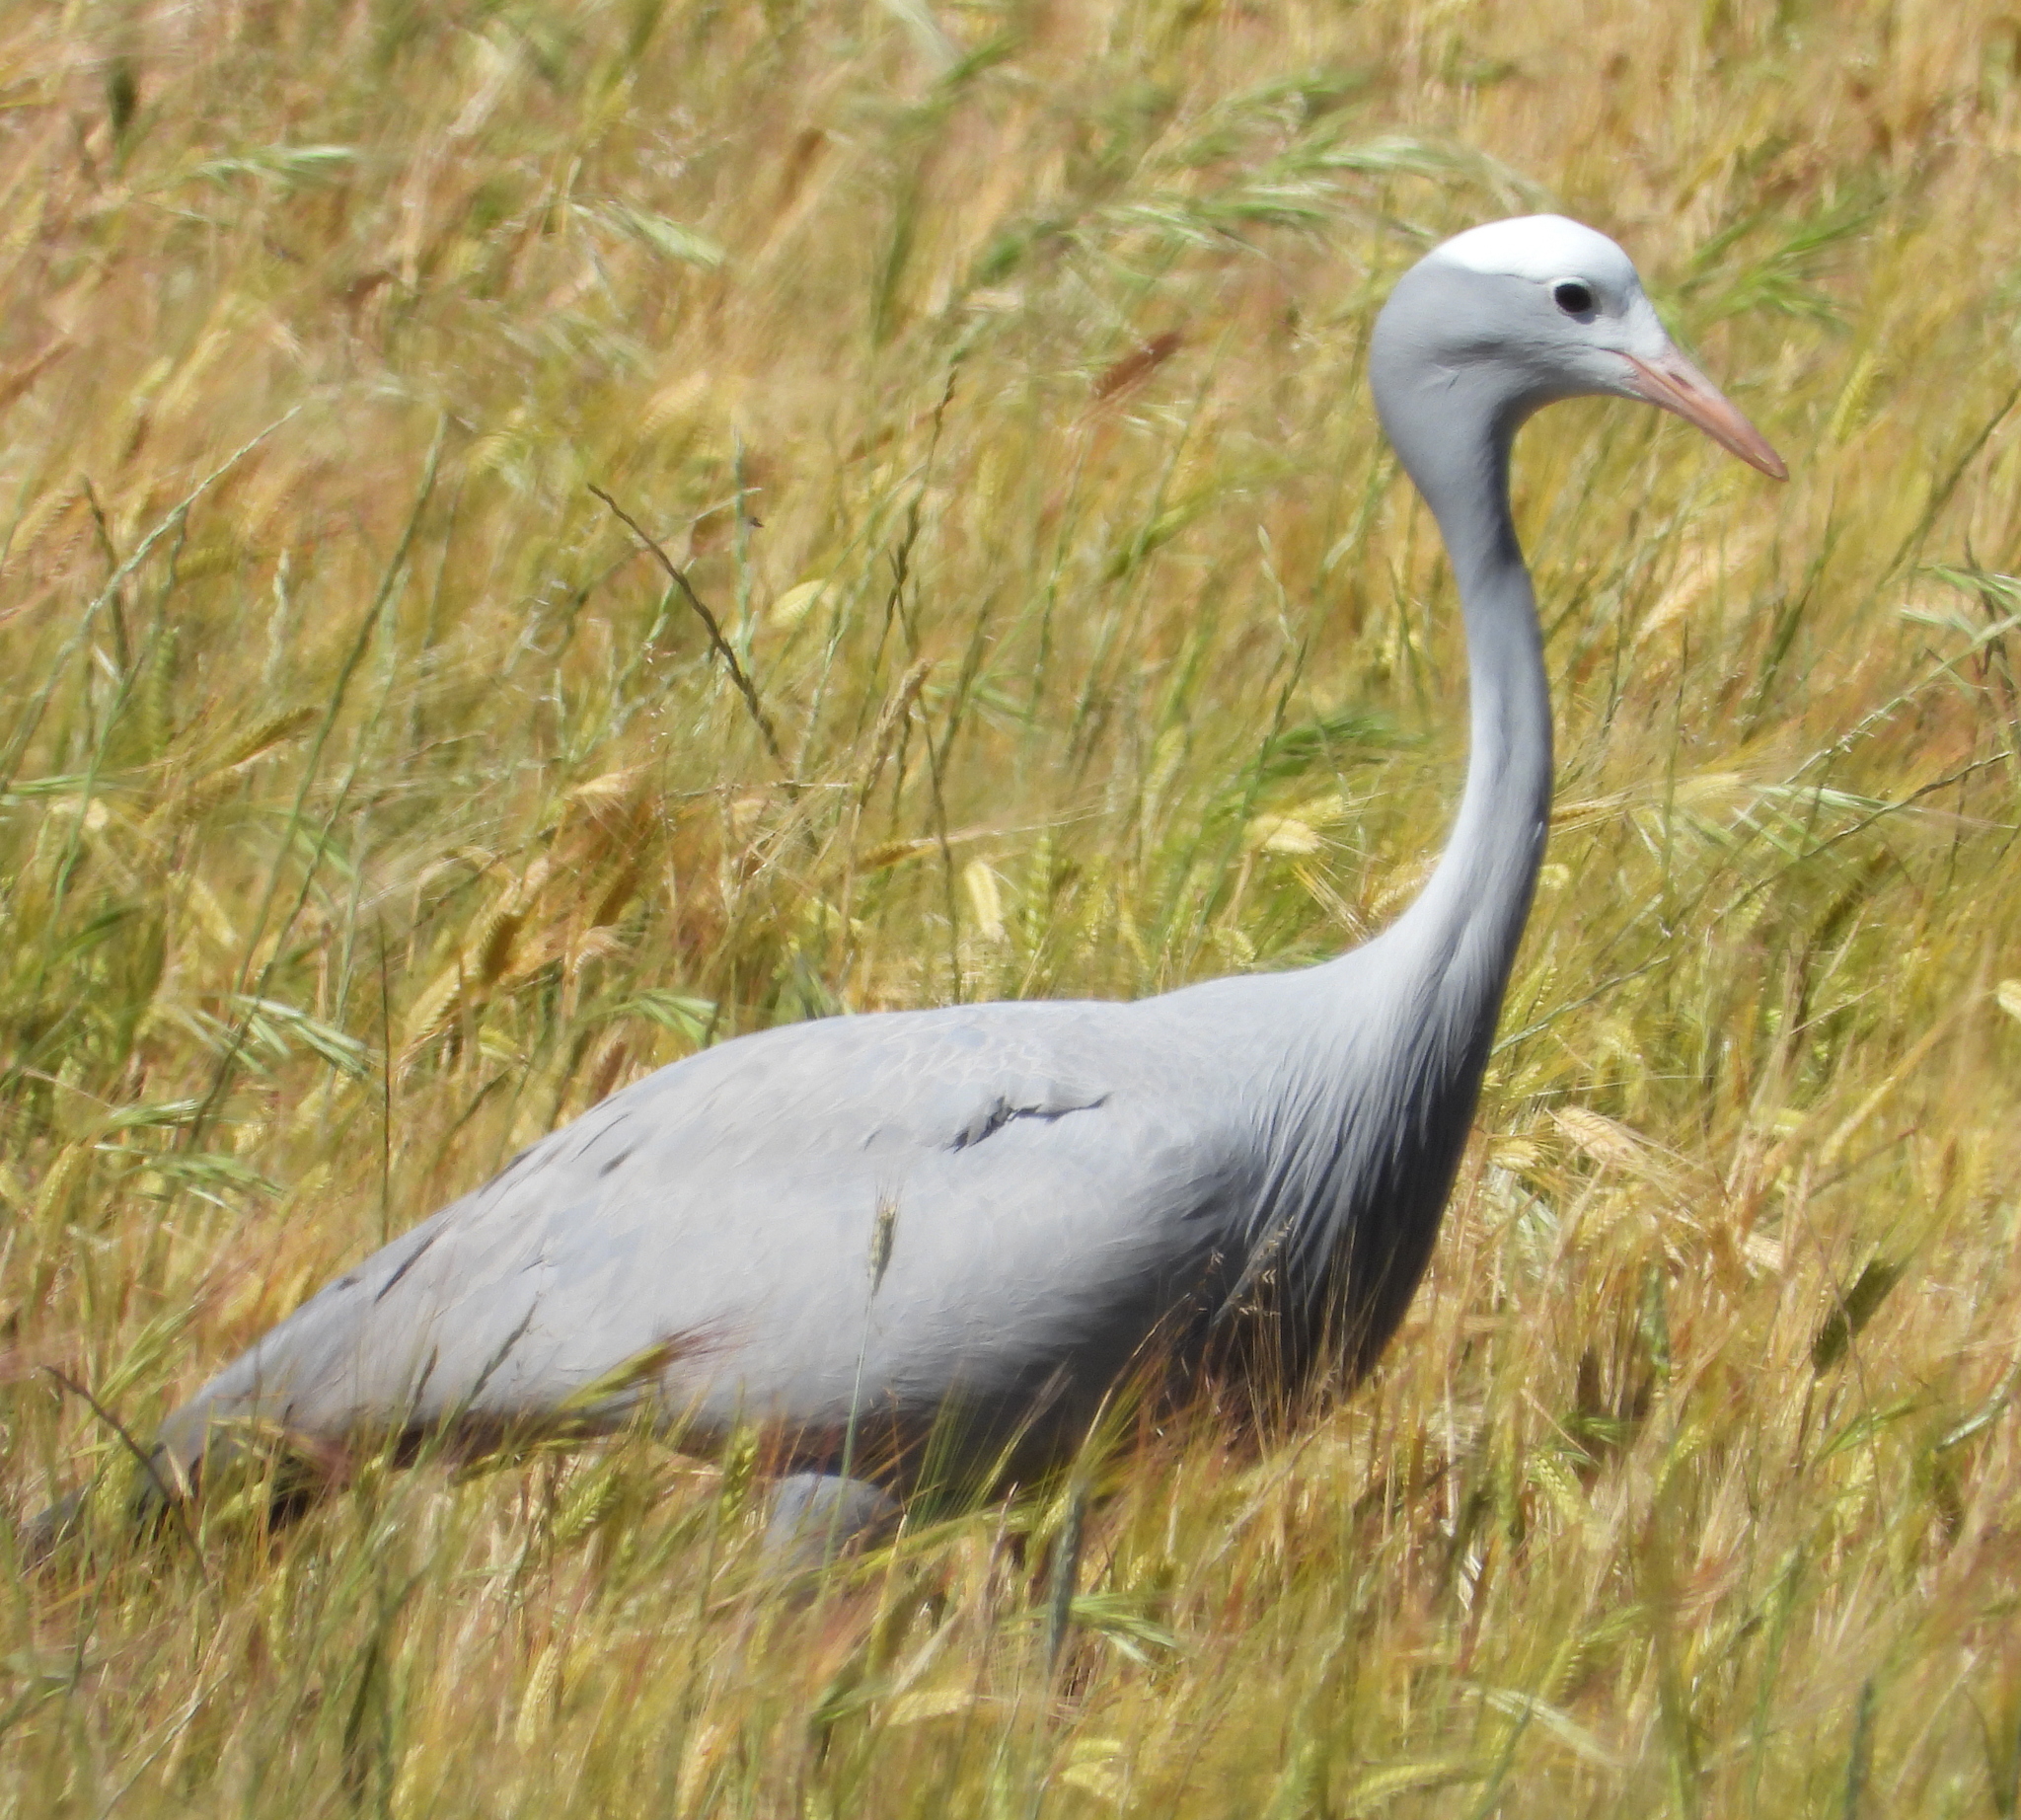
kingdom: Animalia
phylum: Chordata
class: Aves
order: Gruiformes
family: Gruidae
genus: Anthropoides
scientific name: Anthropoides paradiseus
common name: Blue crane
